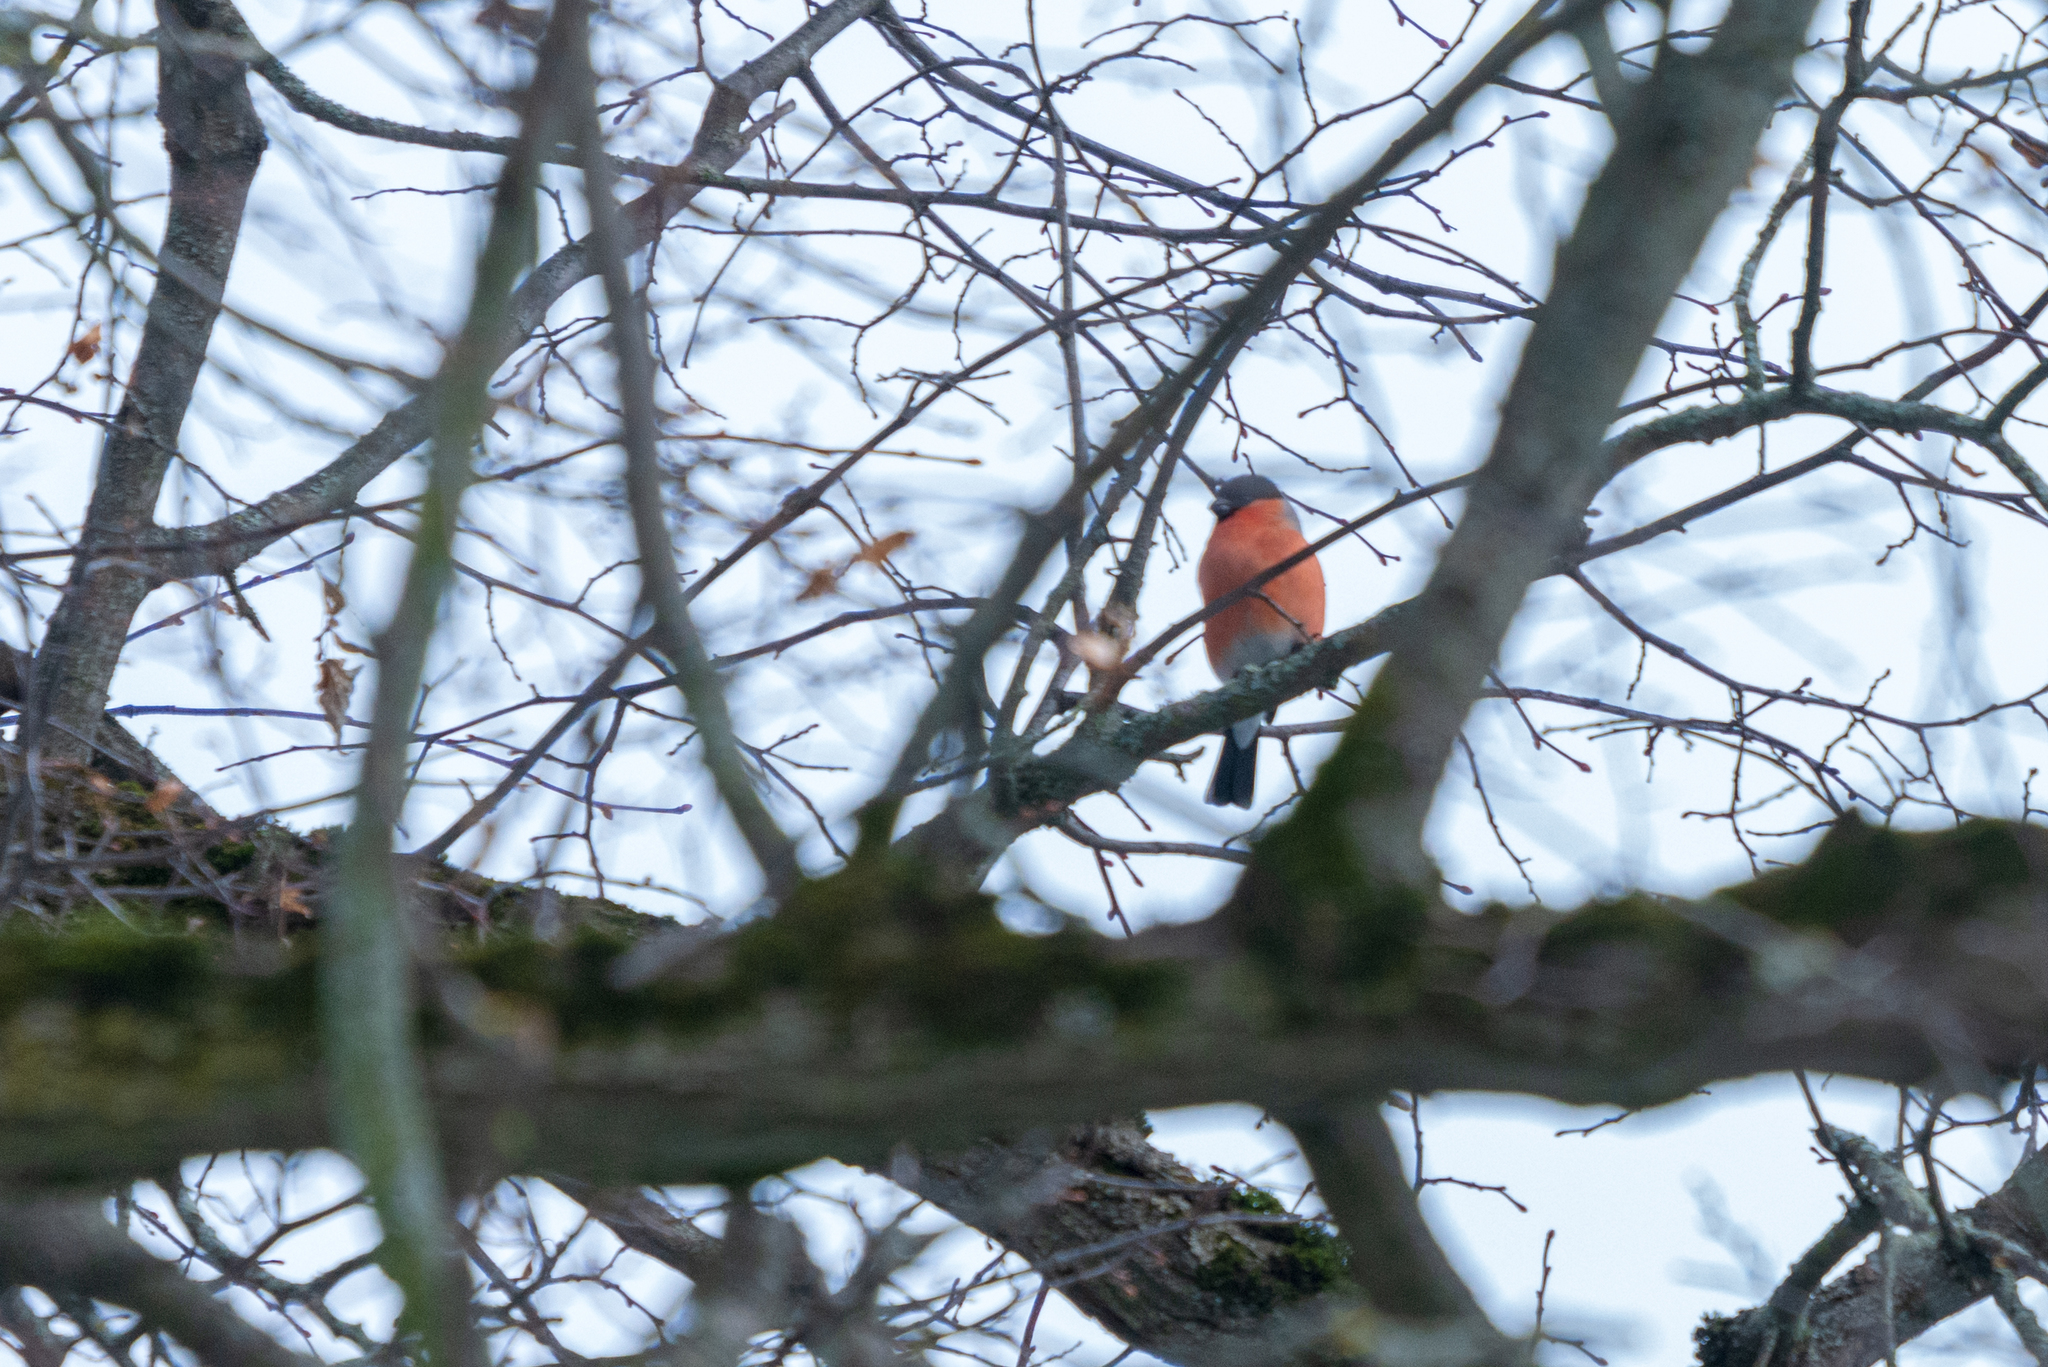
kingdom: Animalia
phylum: Chordata
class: Aves
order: Passeriformes
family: Fringillidae
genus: Pyrrhula
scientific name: Pyrrhula pyrrhula
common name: Eurasian bullfinch
